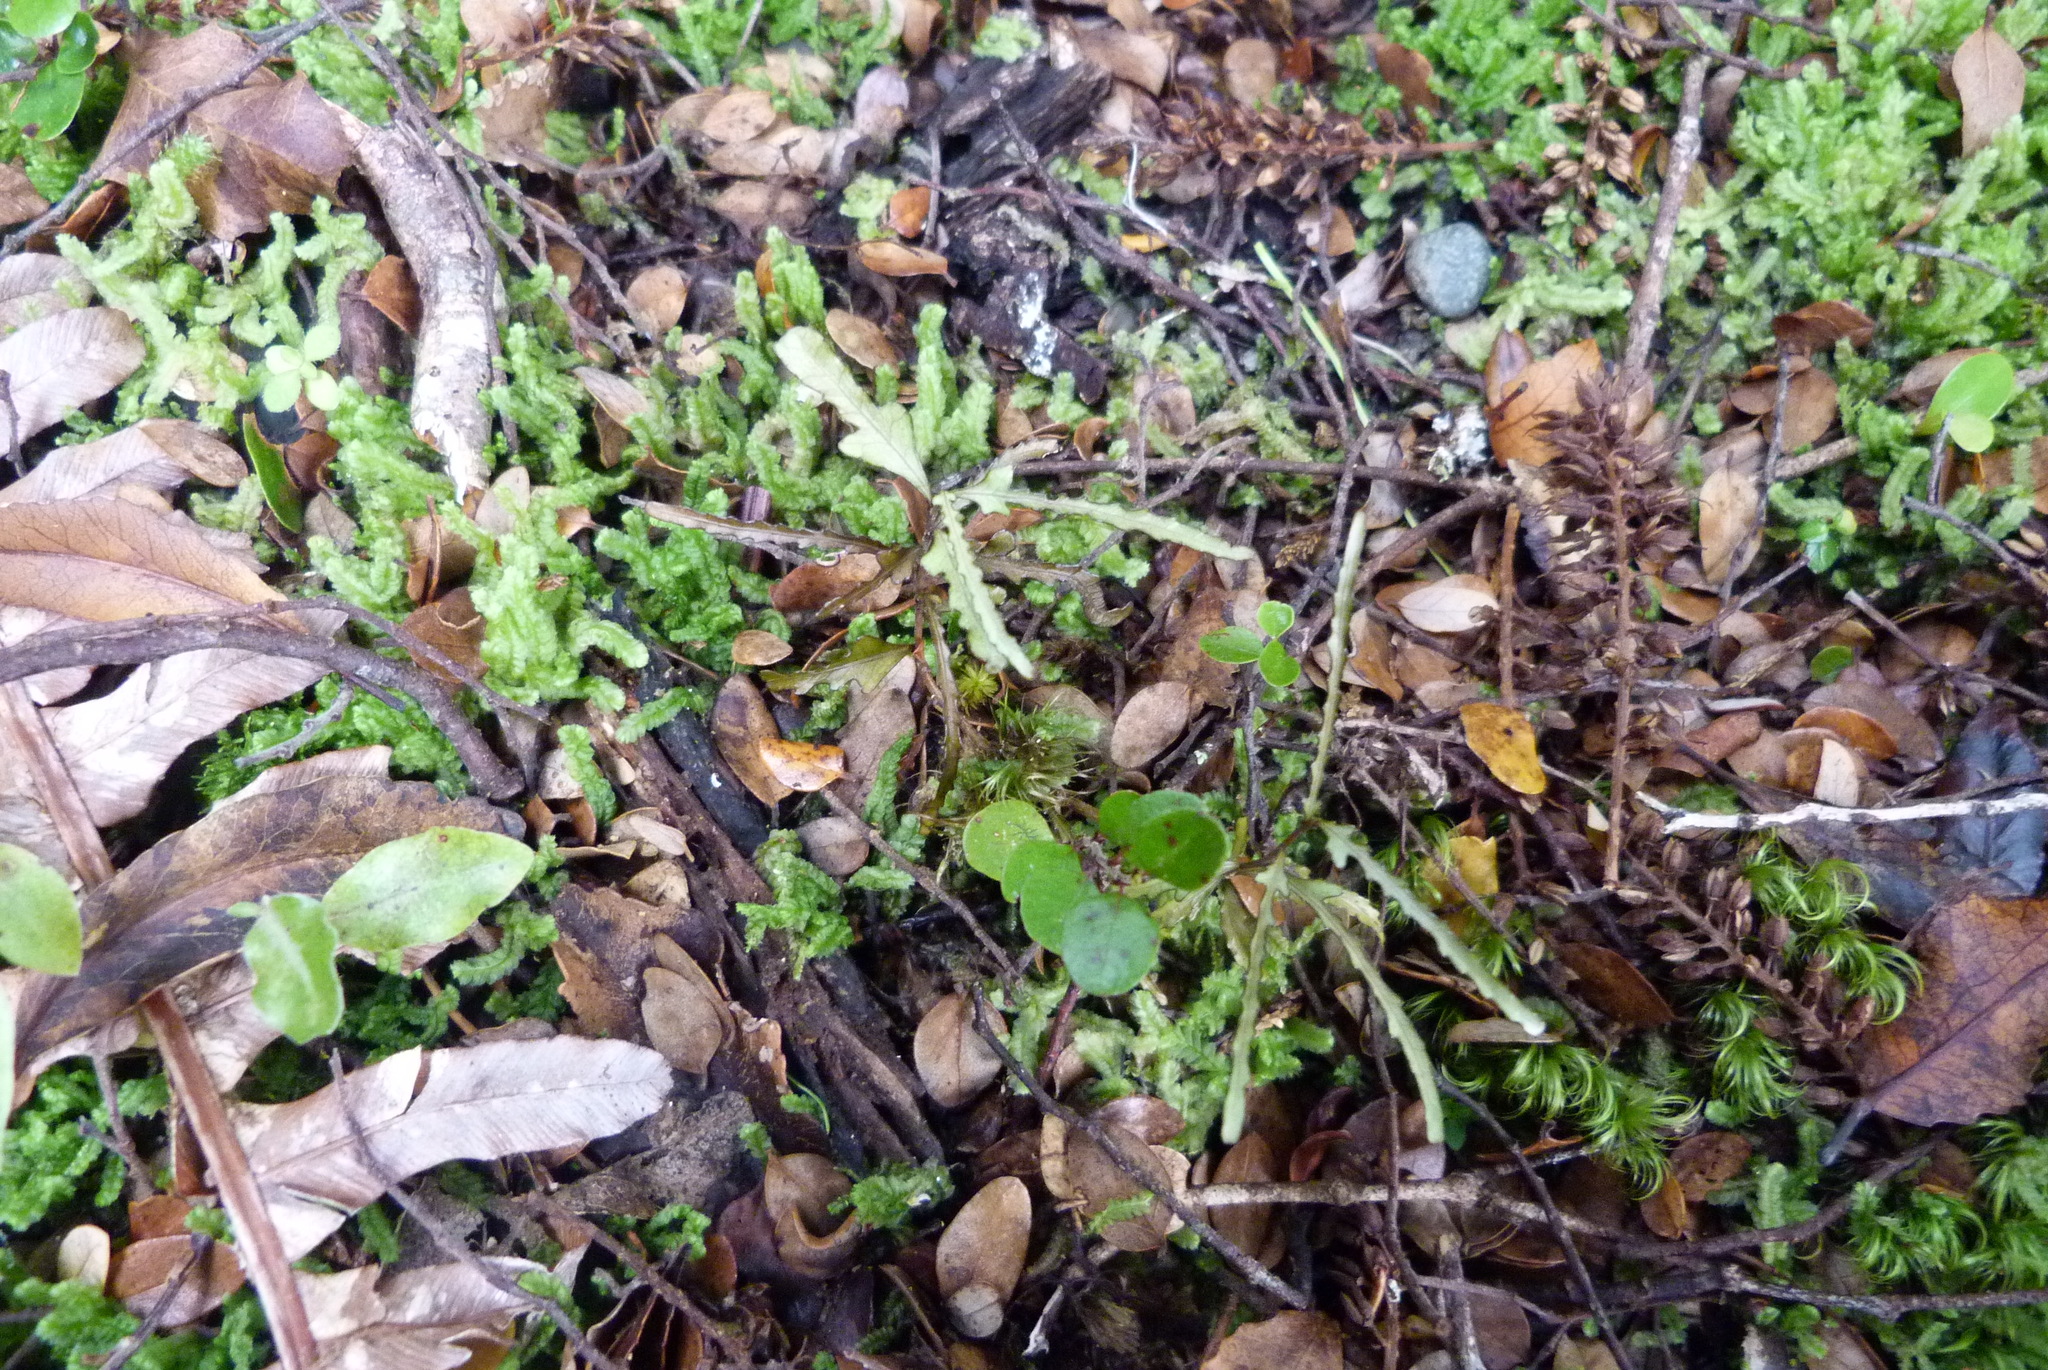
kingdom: Plantae
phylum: Tracheophyta
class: Magnoliopsida
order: Oxalidales
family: Elaeocarpaceae
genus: Elaeocarpus
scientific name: Elaeocarpus hookerianus
